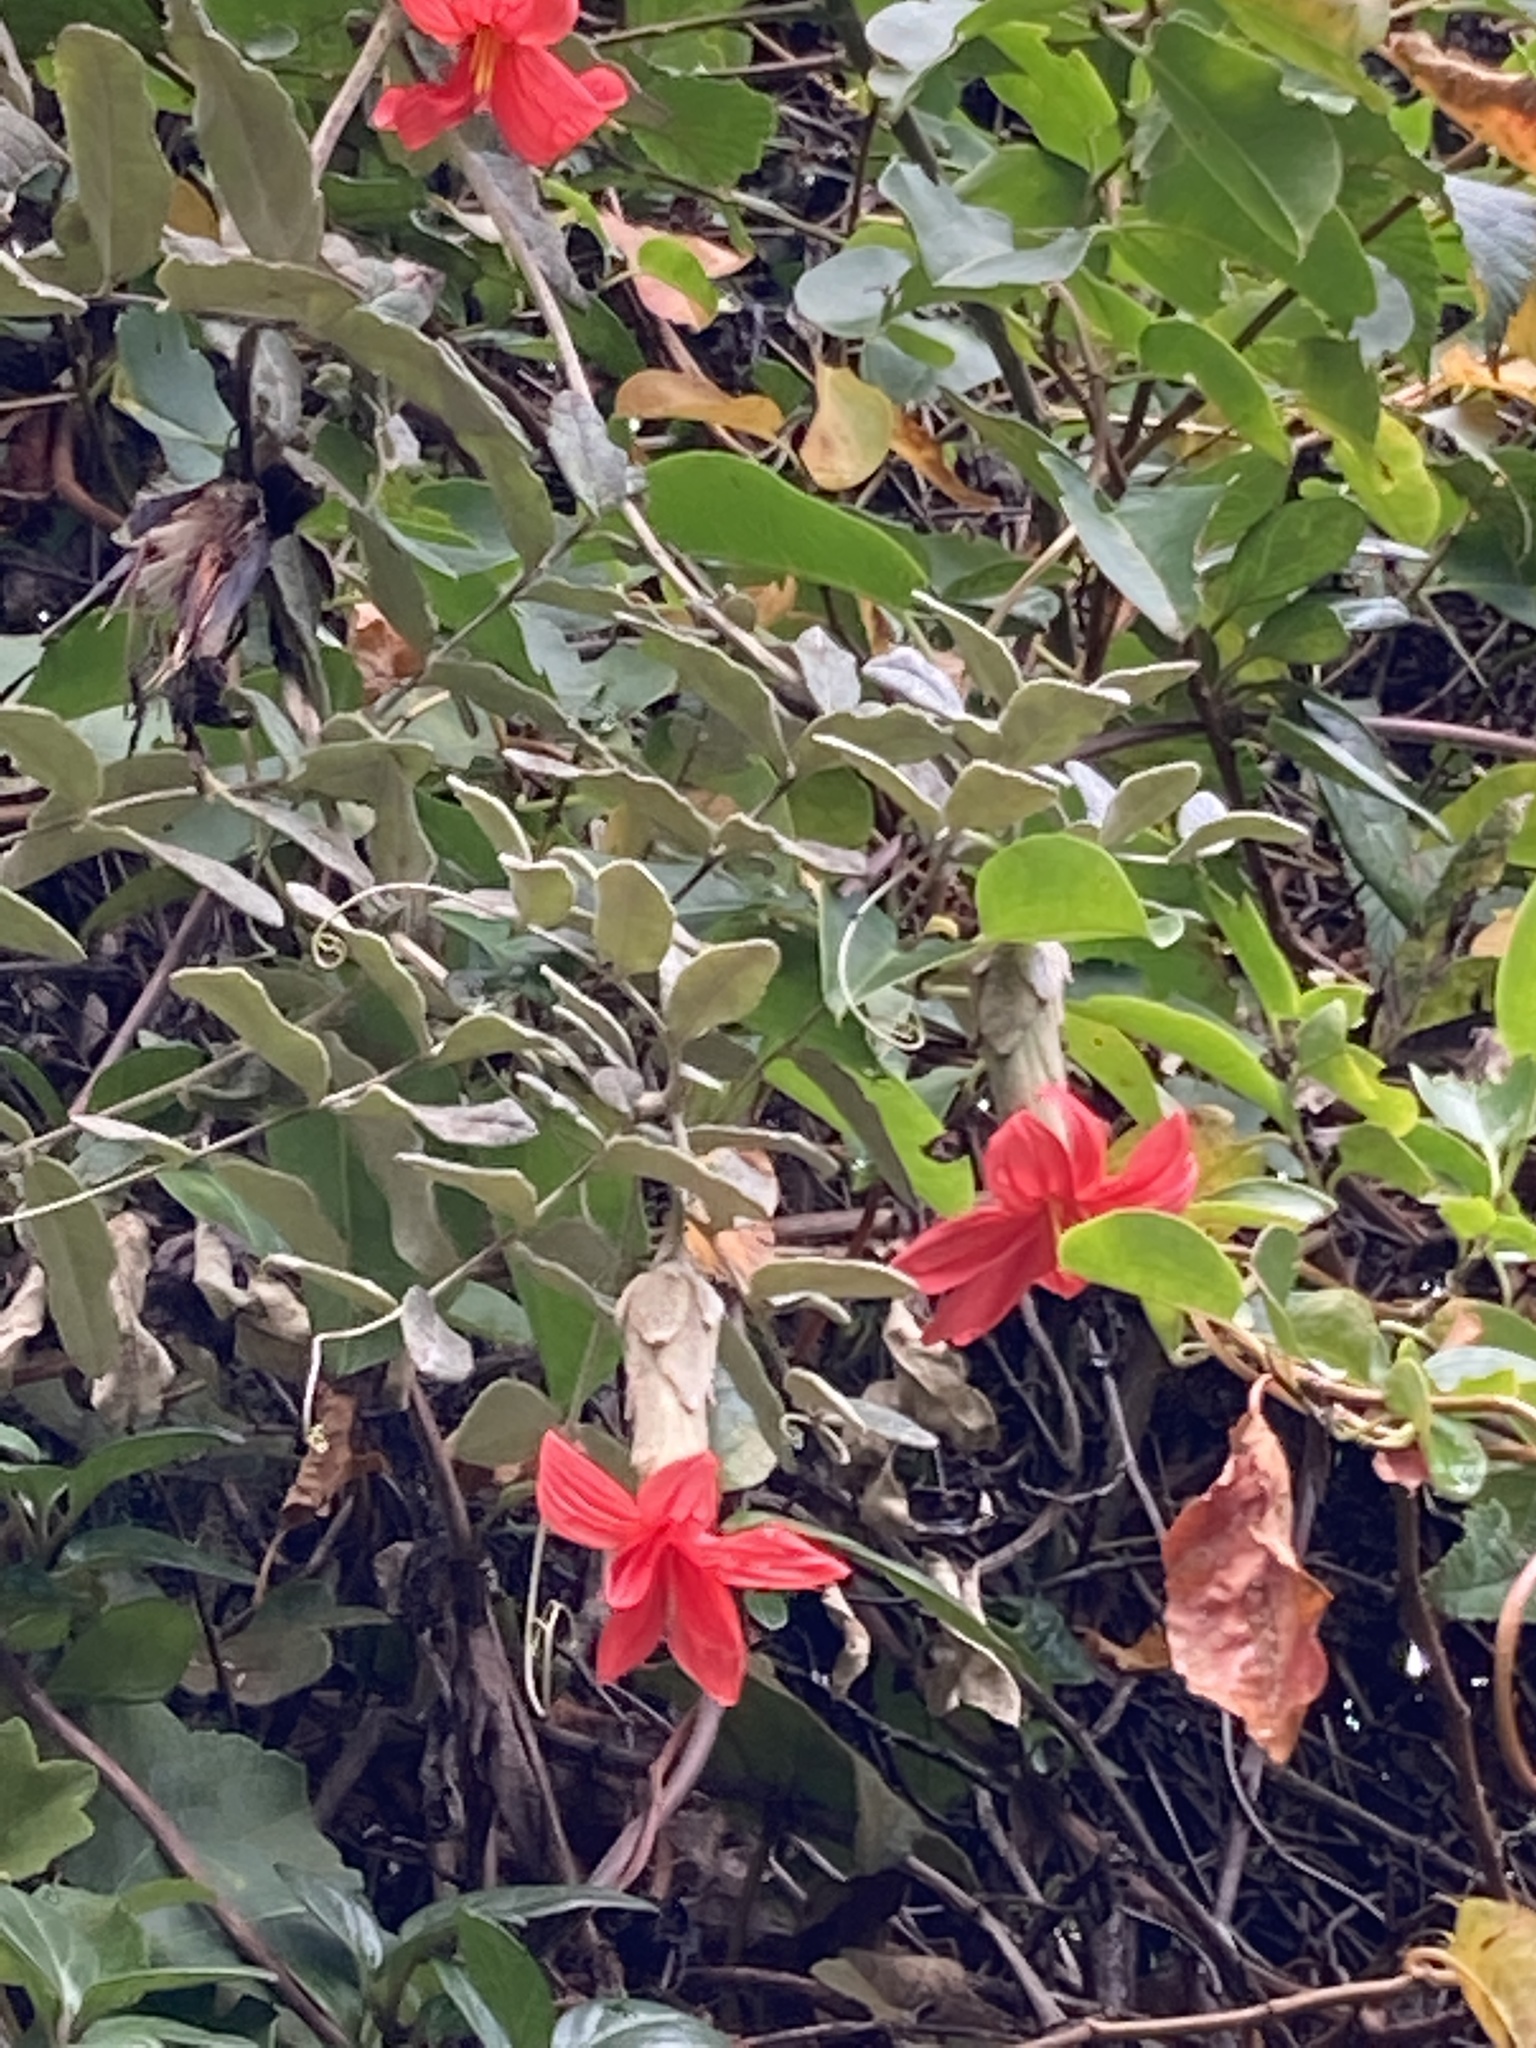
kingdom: Plantae
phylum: Tracheophyta
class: Magnoliopsida
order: Asterales
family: Asteraceae
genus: Mutisia
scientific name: Mutisia clematis
